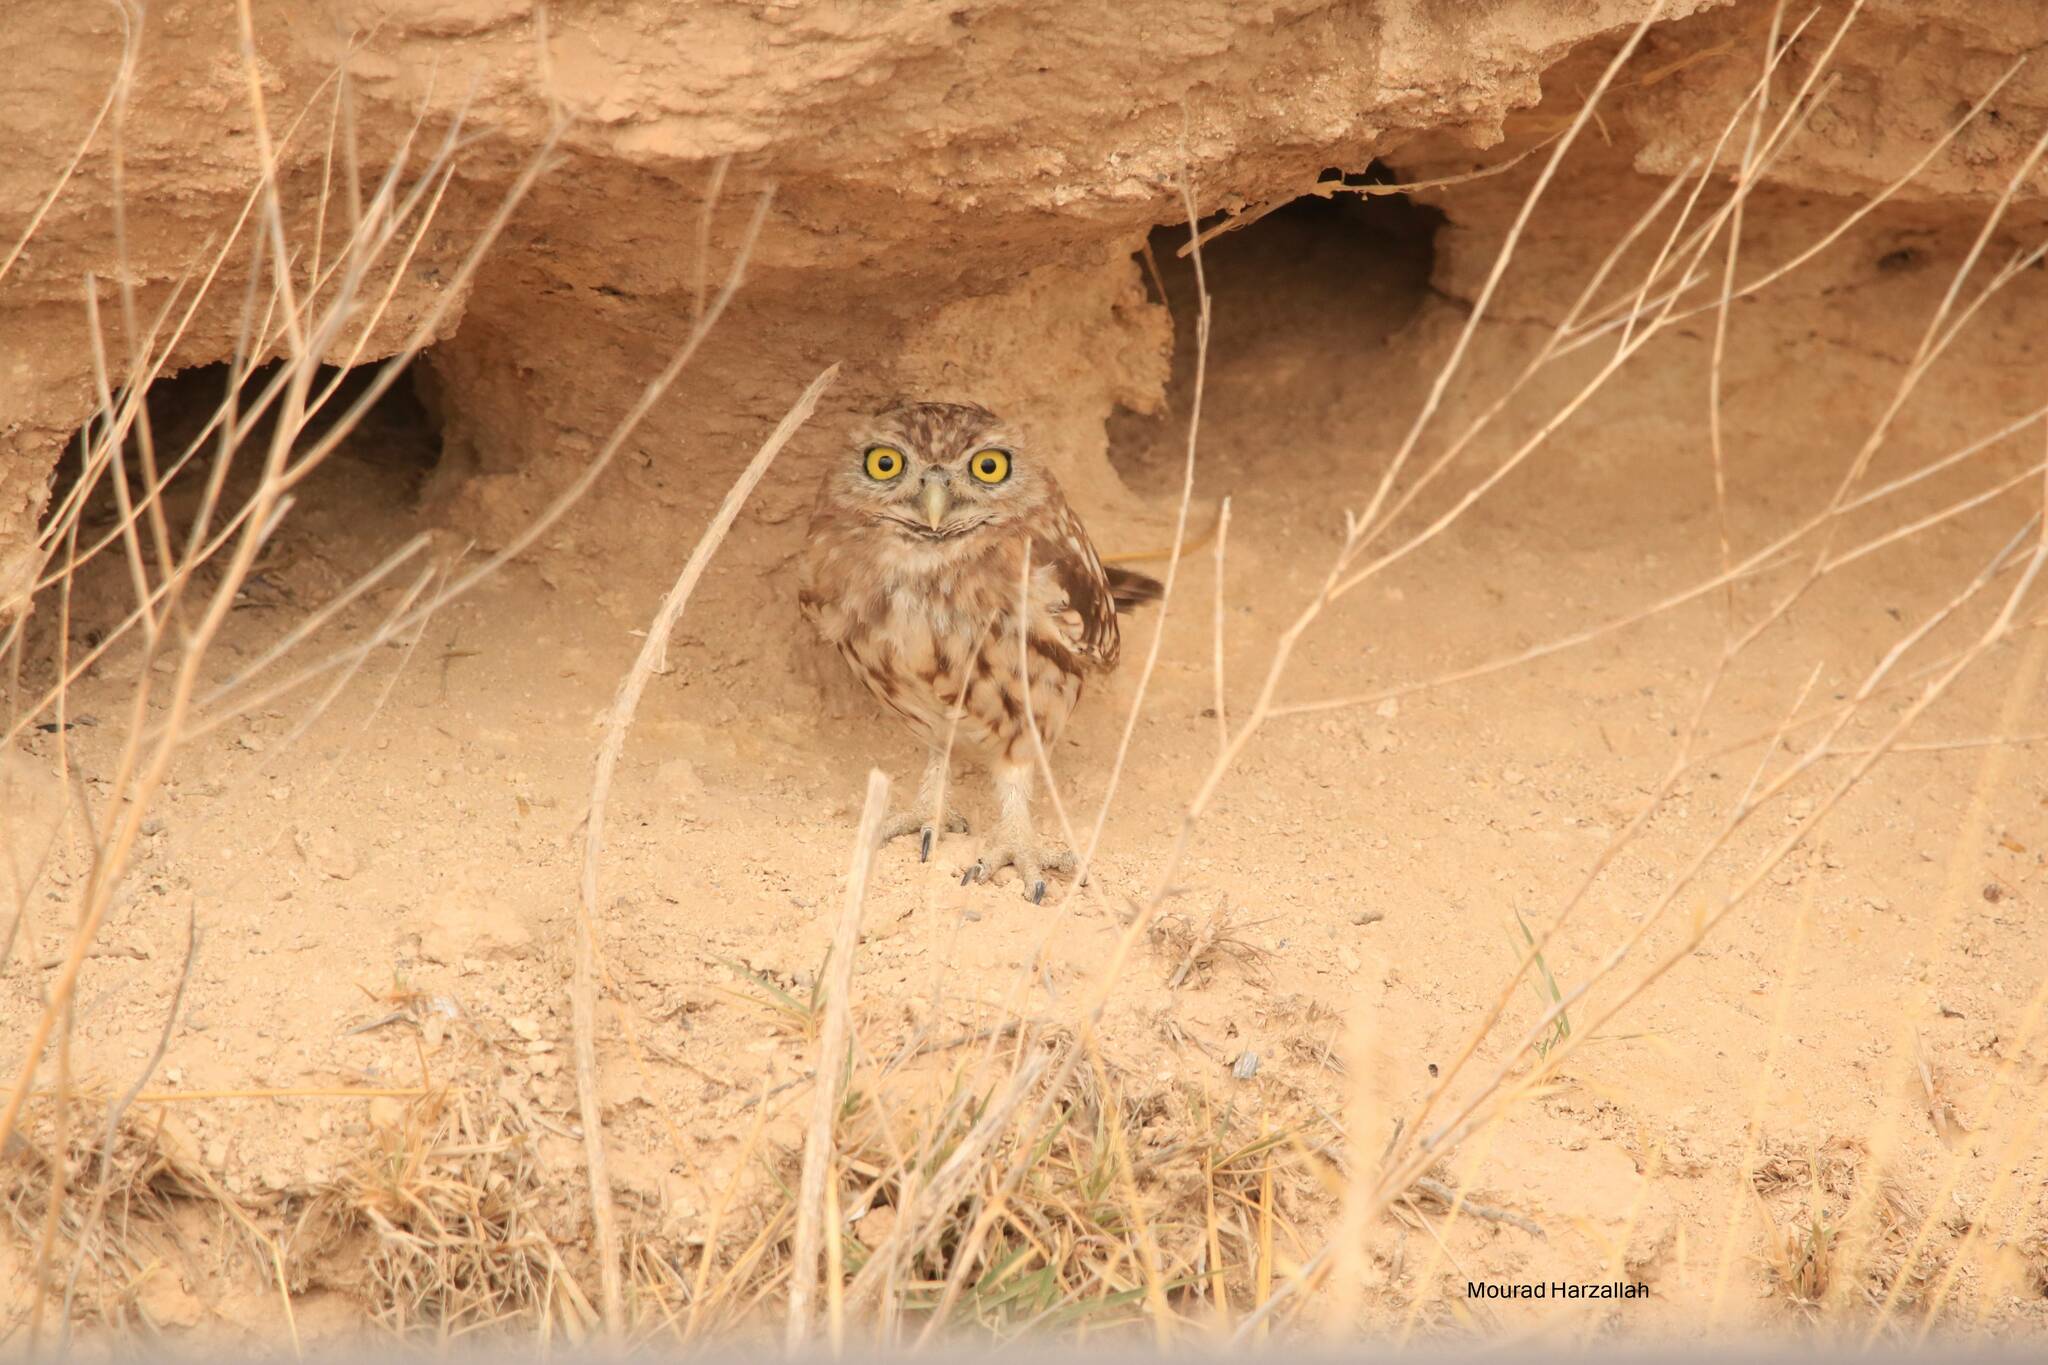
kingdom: Animalia
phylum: Chordata
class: Aves
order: Strigiformes
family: Strigidae
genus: Athene
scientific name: Athene noctua
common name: Little owl
